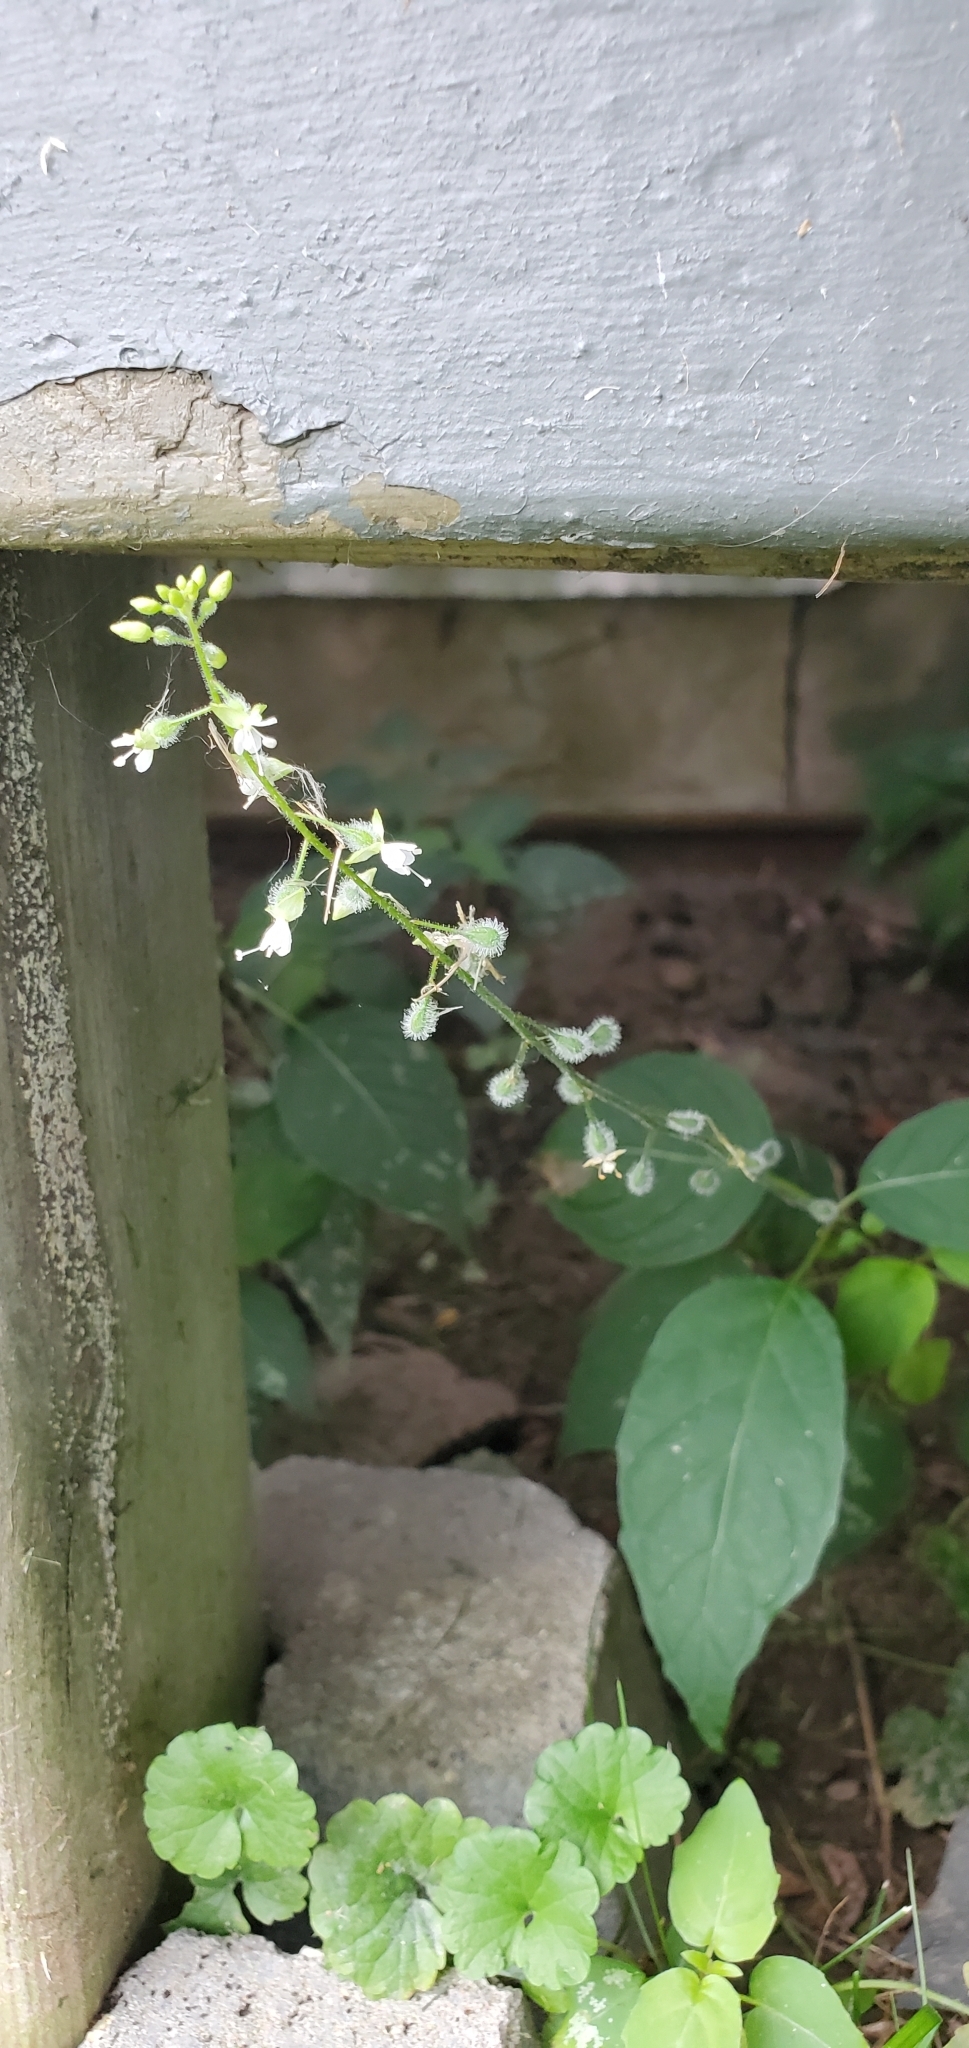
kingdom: Plantae
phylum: Tracheophyta
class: Magnoliopsida
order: Myrtales
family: Onagraceae
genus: Circaea
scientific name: Circaea canadensis
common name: Broad-leaved enchanter's nightshade
